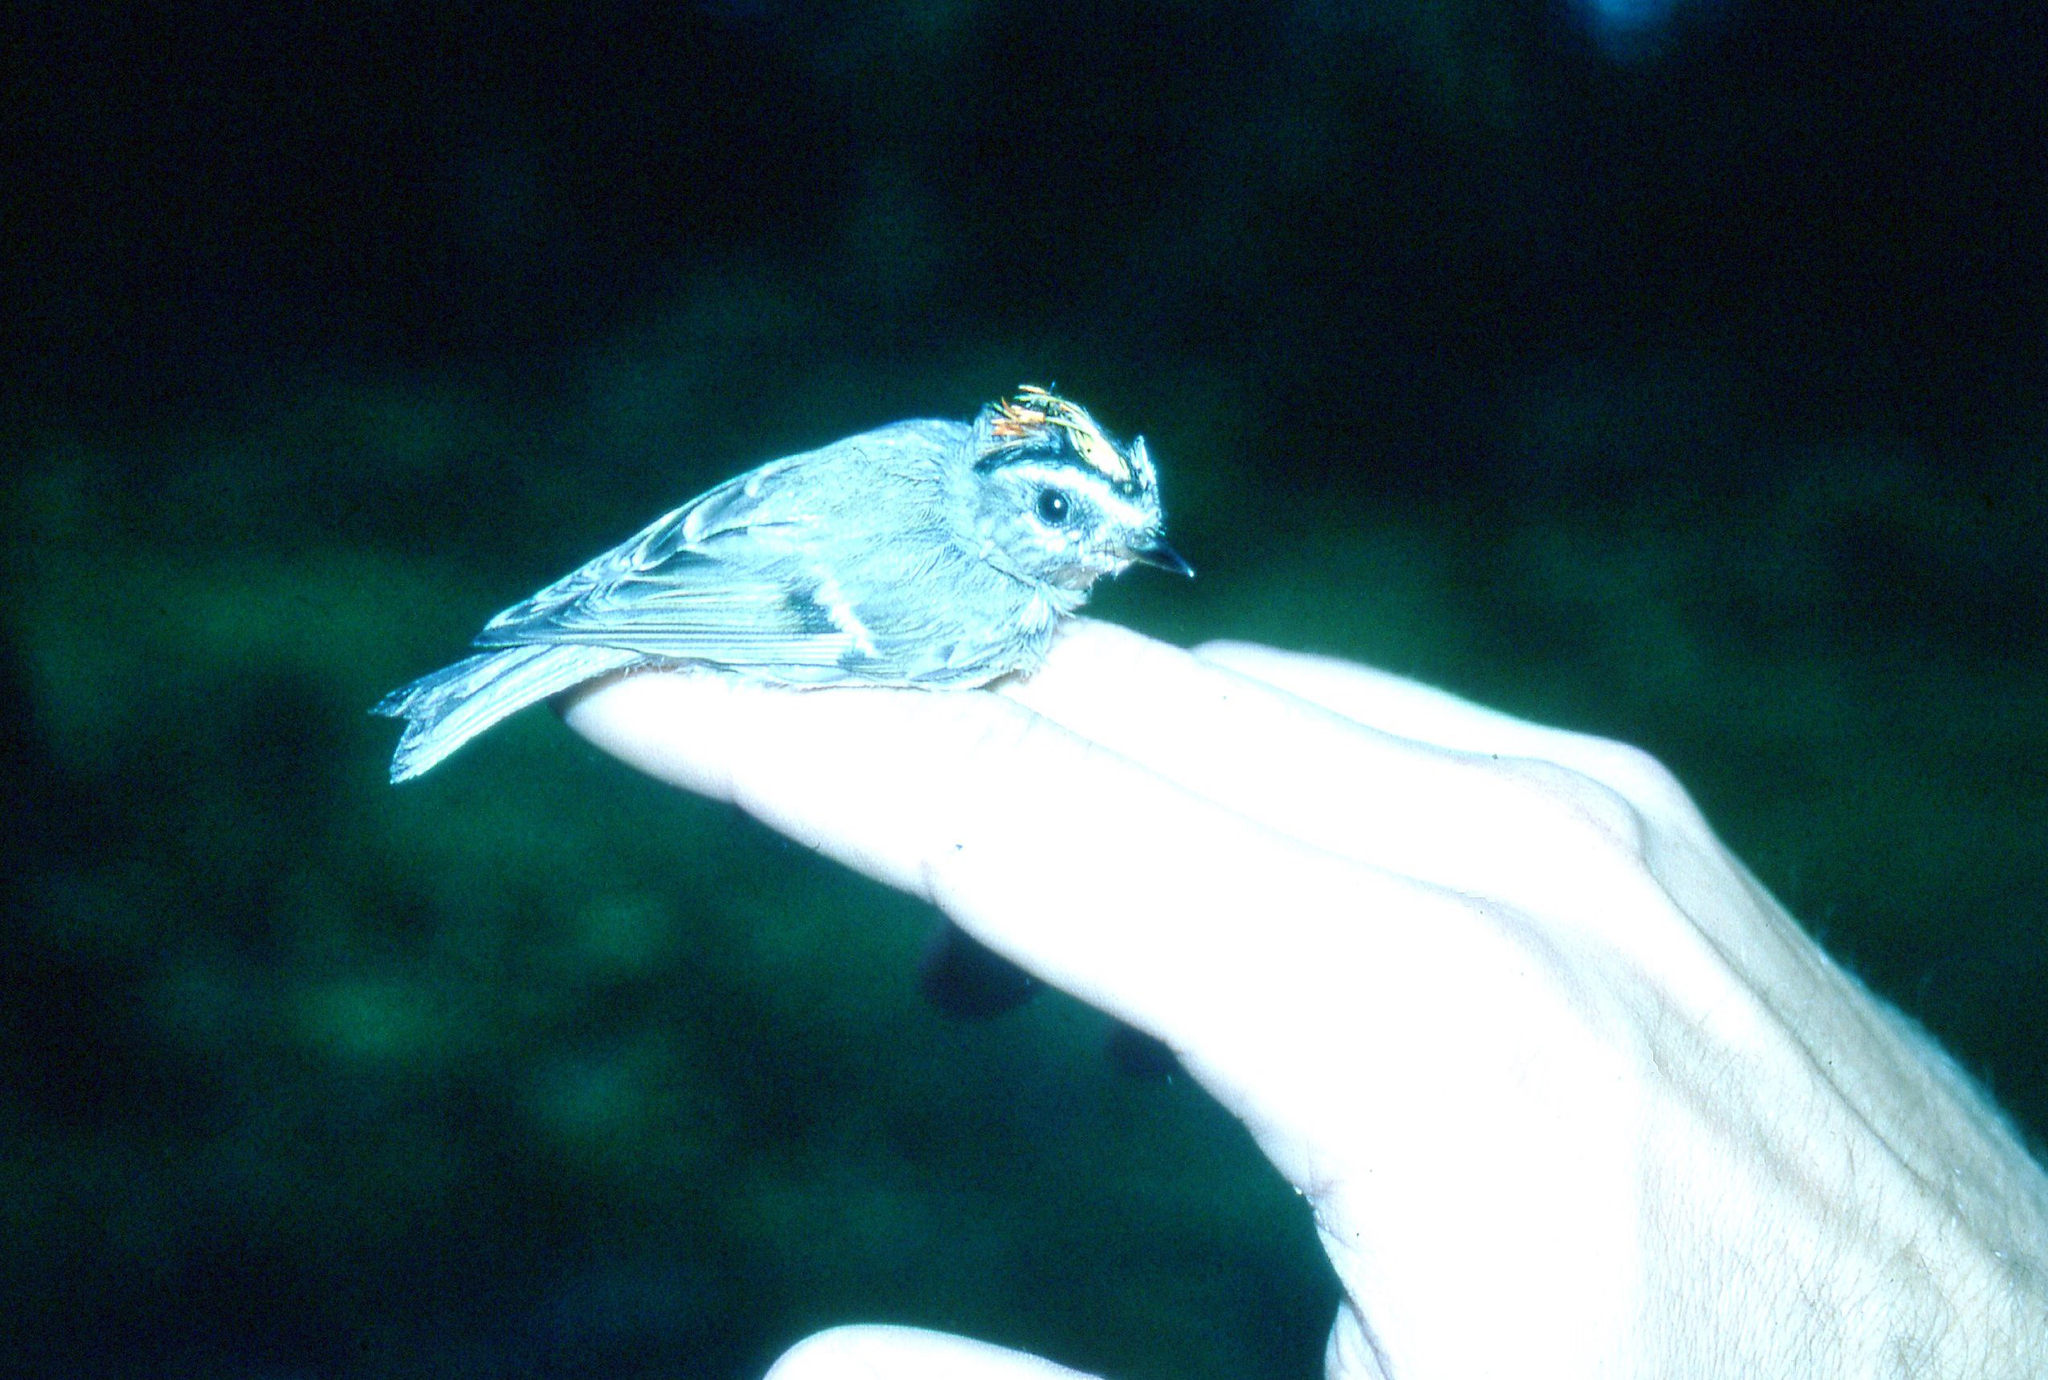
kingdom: Animalia
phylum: Chordata
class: Aves
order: Passeriformes
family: Regulidae
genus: Regulus
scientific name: Regulus satrapa
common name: Golden-crowned kinglet
